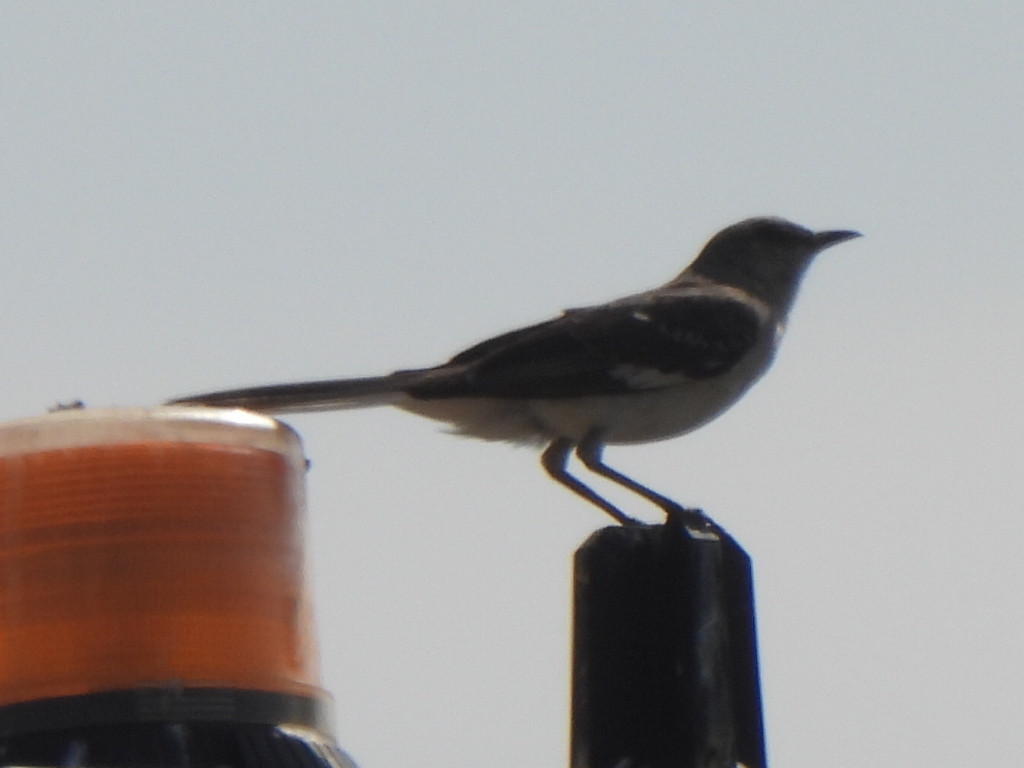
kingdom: Animalia
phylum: Chordata
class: Aves
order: Passeriformes
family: Mimidae
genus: Mimus
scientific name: Mimus polyglottos
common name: Northern mockingbird
